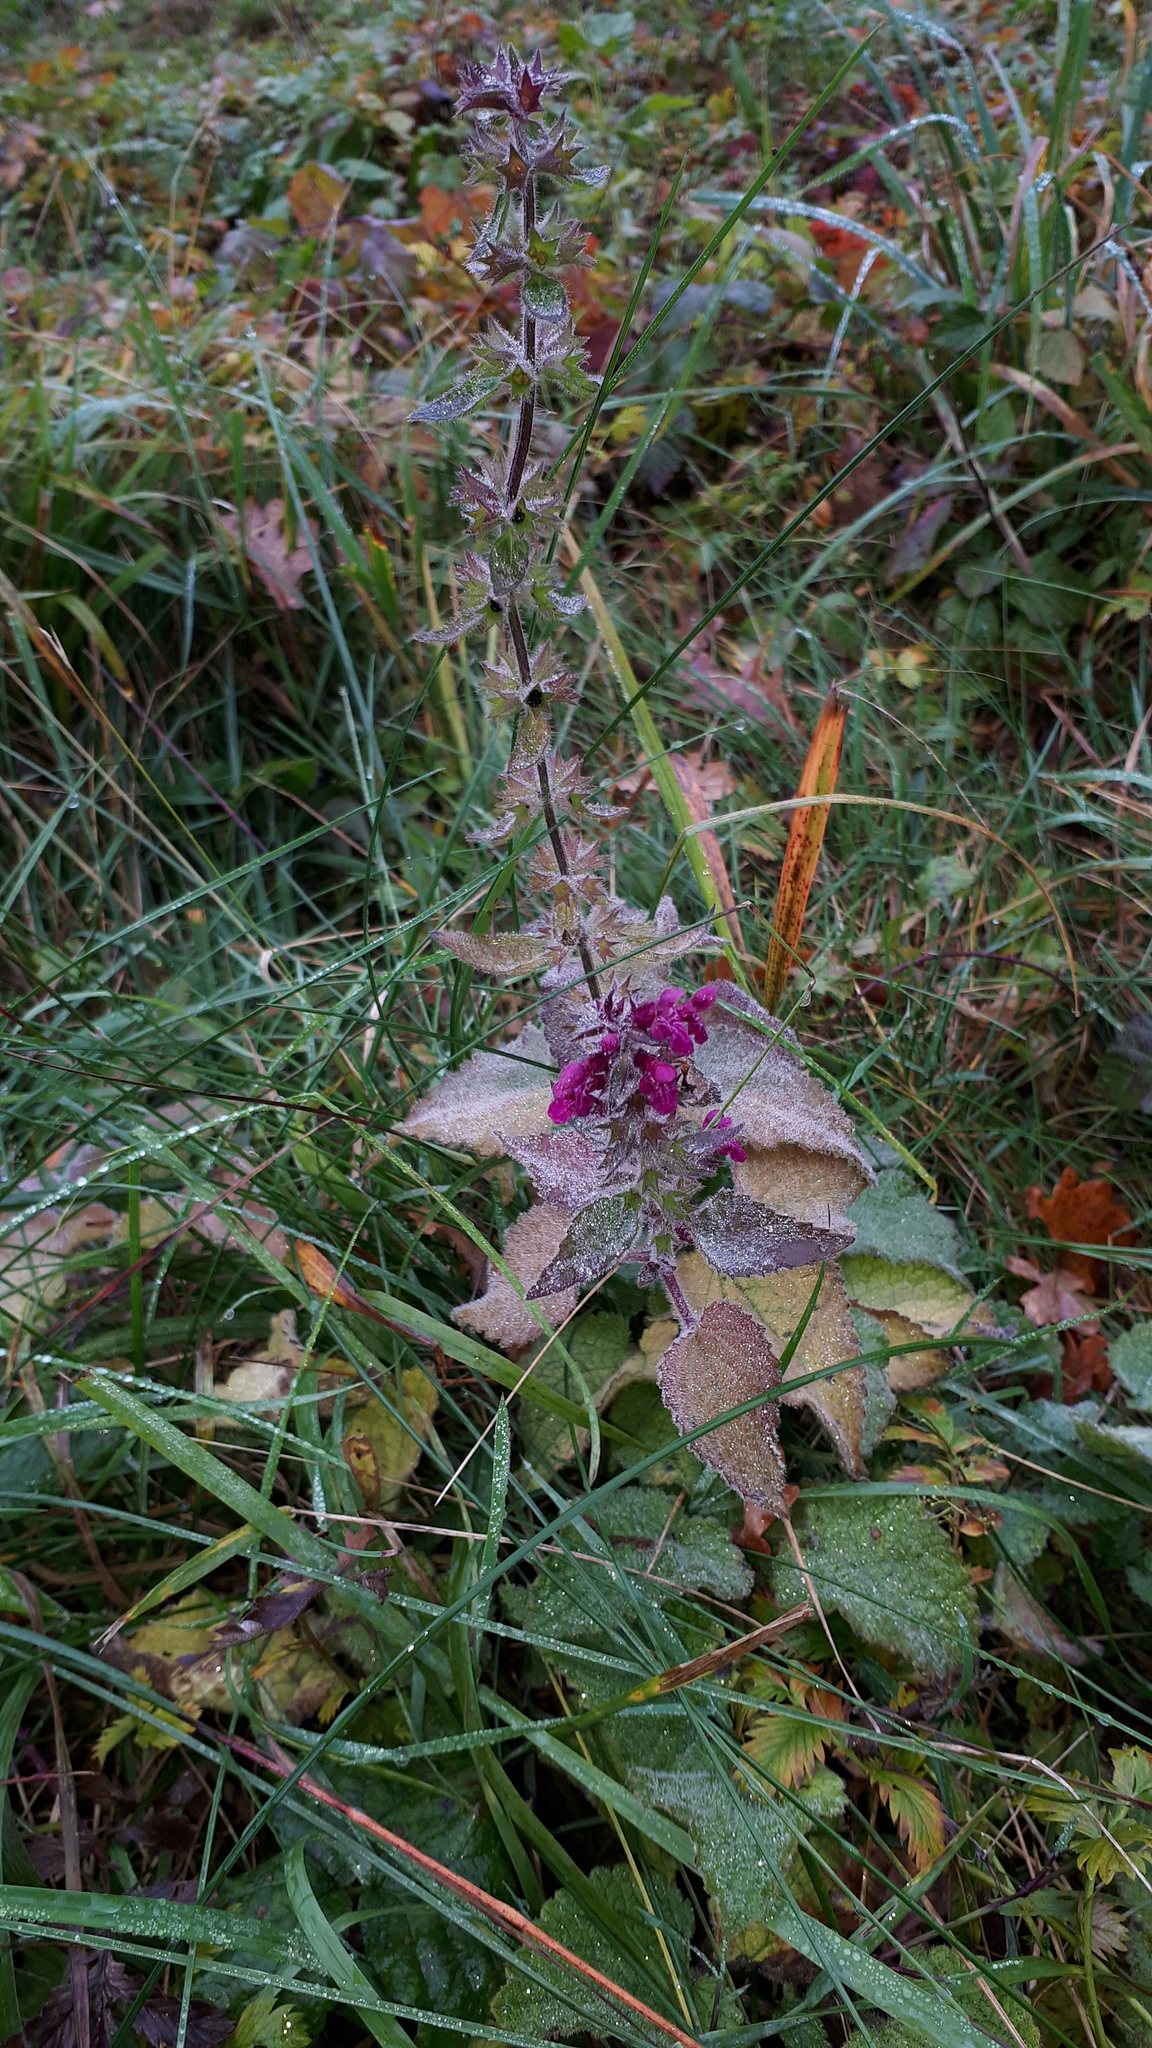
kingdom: Plantae
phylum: Tracheophyta
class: Magnoliopsida
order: Lamiales
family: Lamiaceae
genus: Stachys
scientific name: Stachys sylvatica
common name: Hedge woundwort
